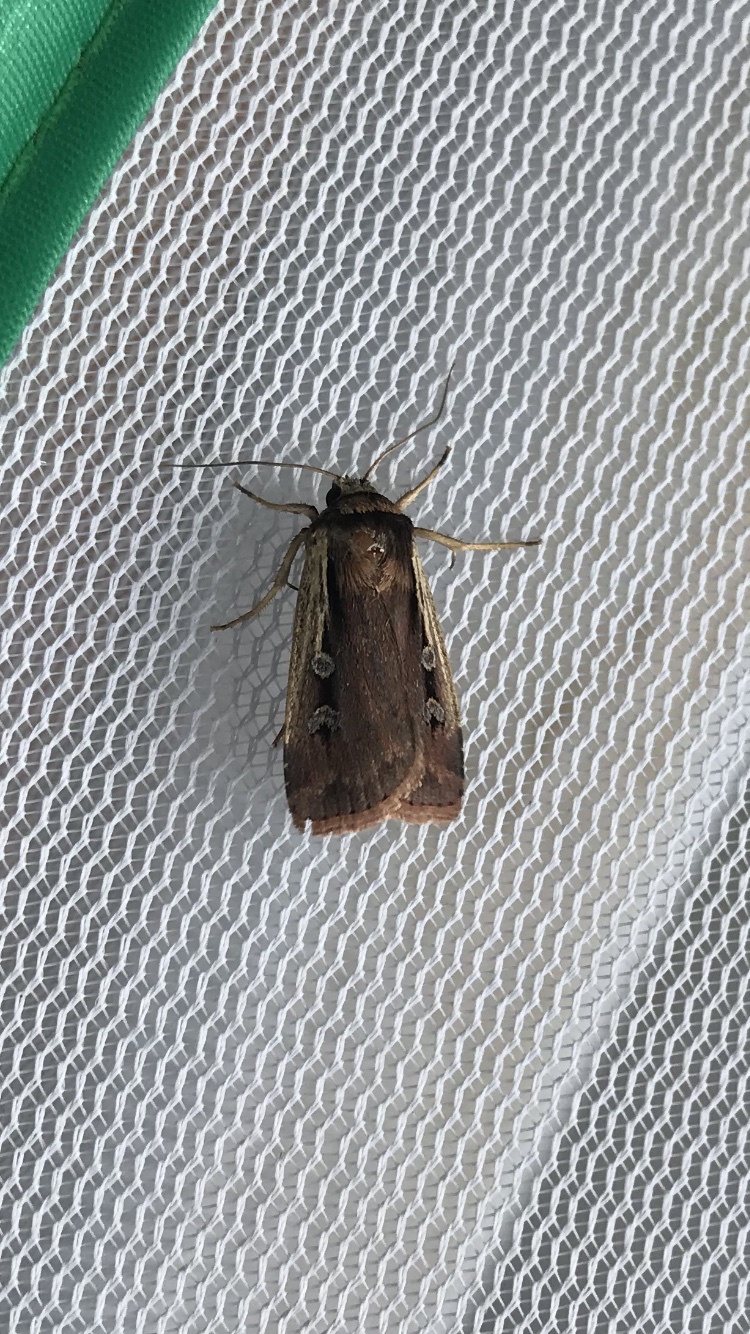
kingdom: Animalia
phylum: Arthropoda
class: Insecta
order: Lepidoptera
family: Noctuidae
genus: Ochropleura
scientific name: Ochropleura implecta
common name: Flame-shouldered dart
